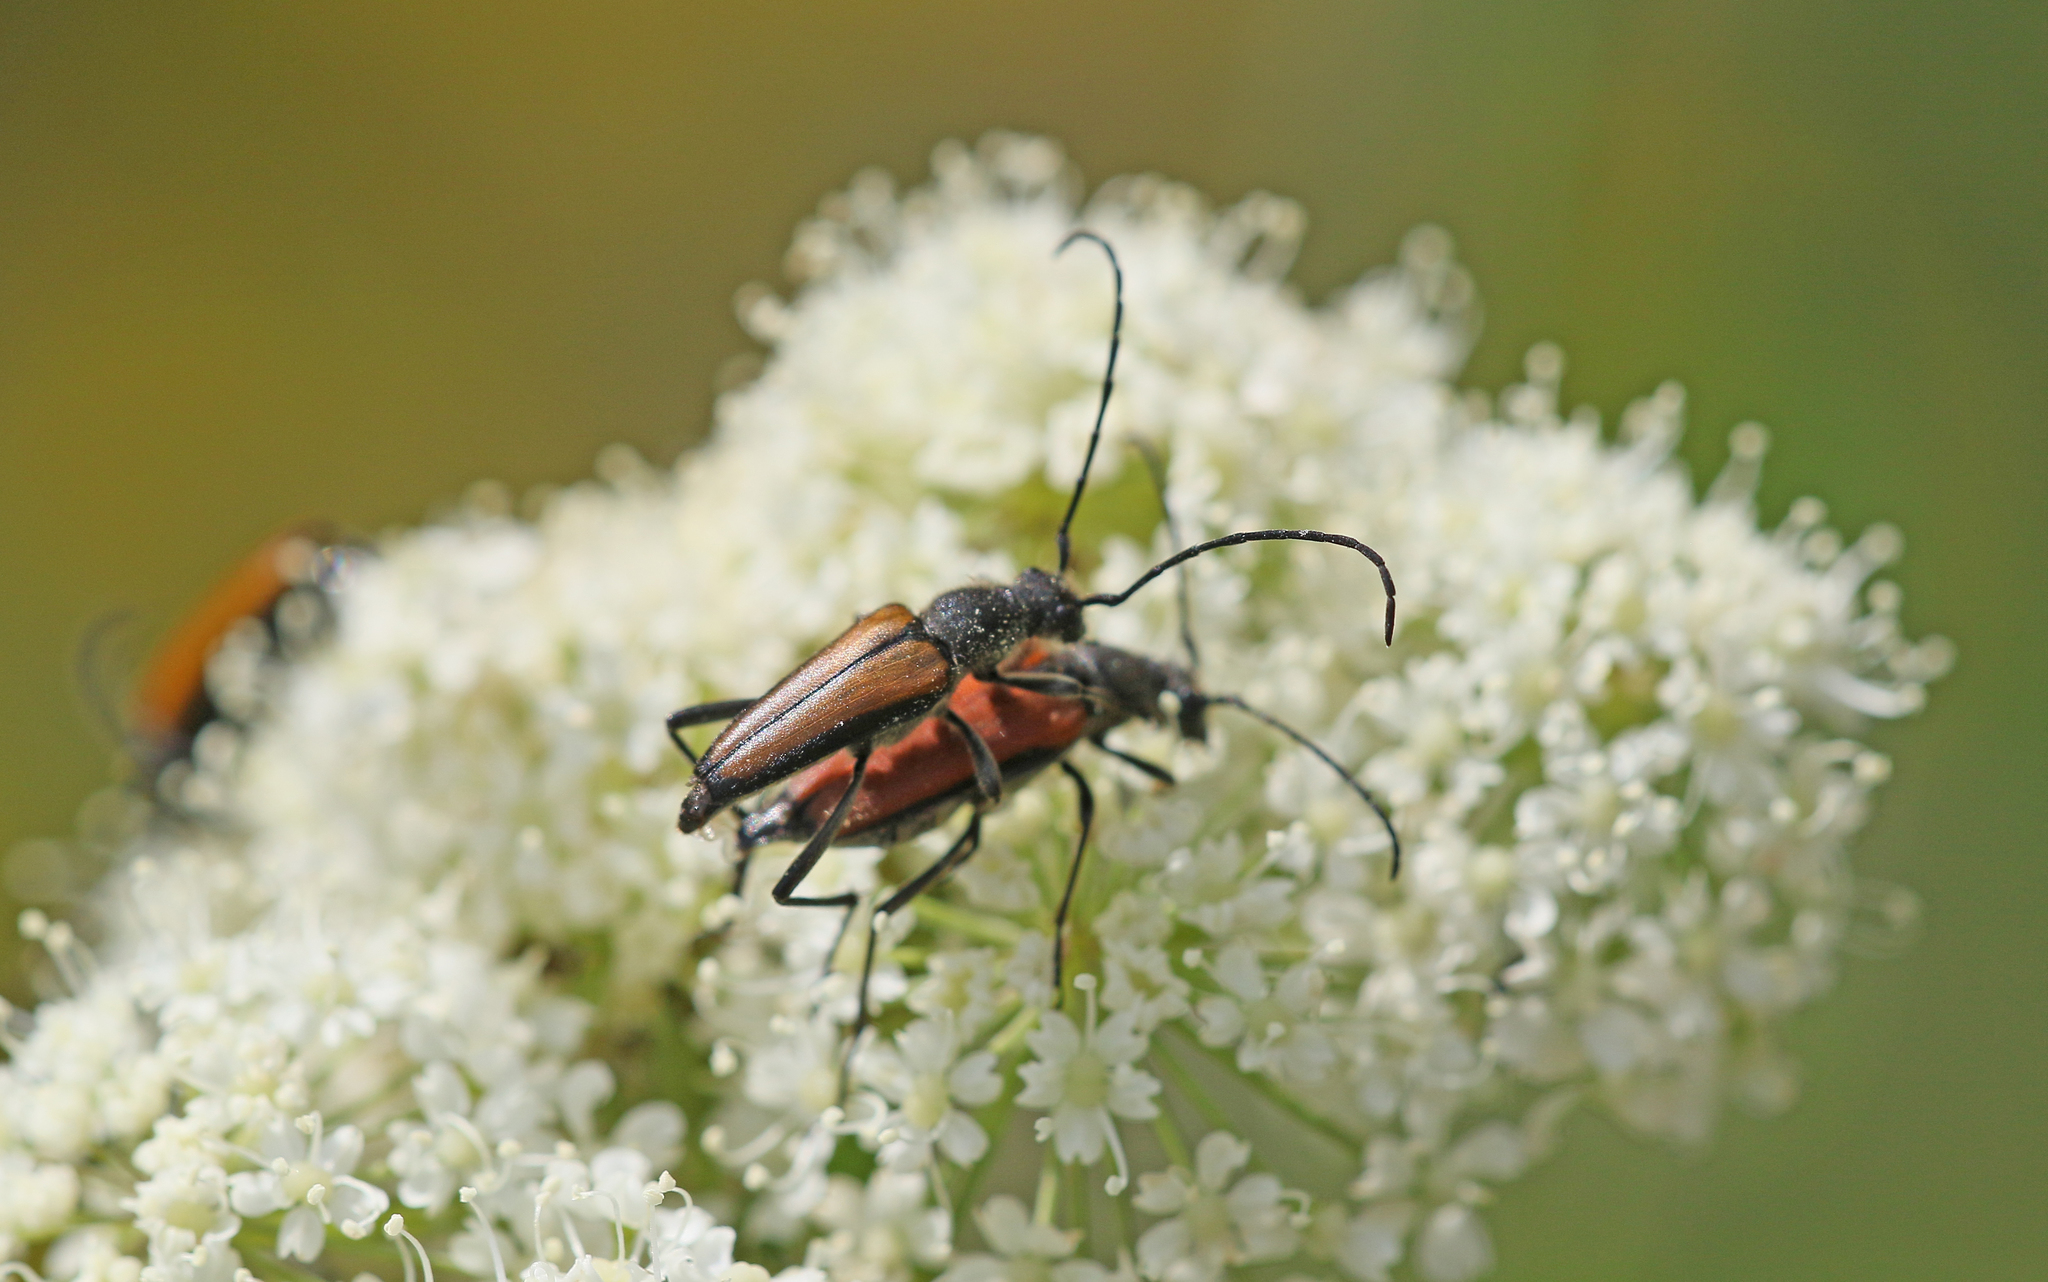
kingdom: Animalia
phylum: Arthropoda
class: Insecta
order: Coleoptera
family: Cerambycidae
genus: Anastrangalia
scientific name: Anastrangalia sanguinolenta
